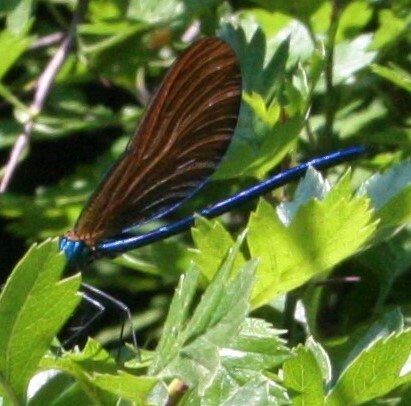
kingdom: Animalia
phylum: Arthropoda
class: Insecta
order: Odonata
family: Calopterygidae
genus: Calopteryx
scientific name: Calopteryx virgo
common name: Beautiful demoiselle
